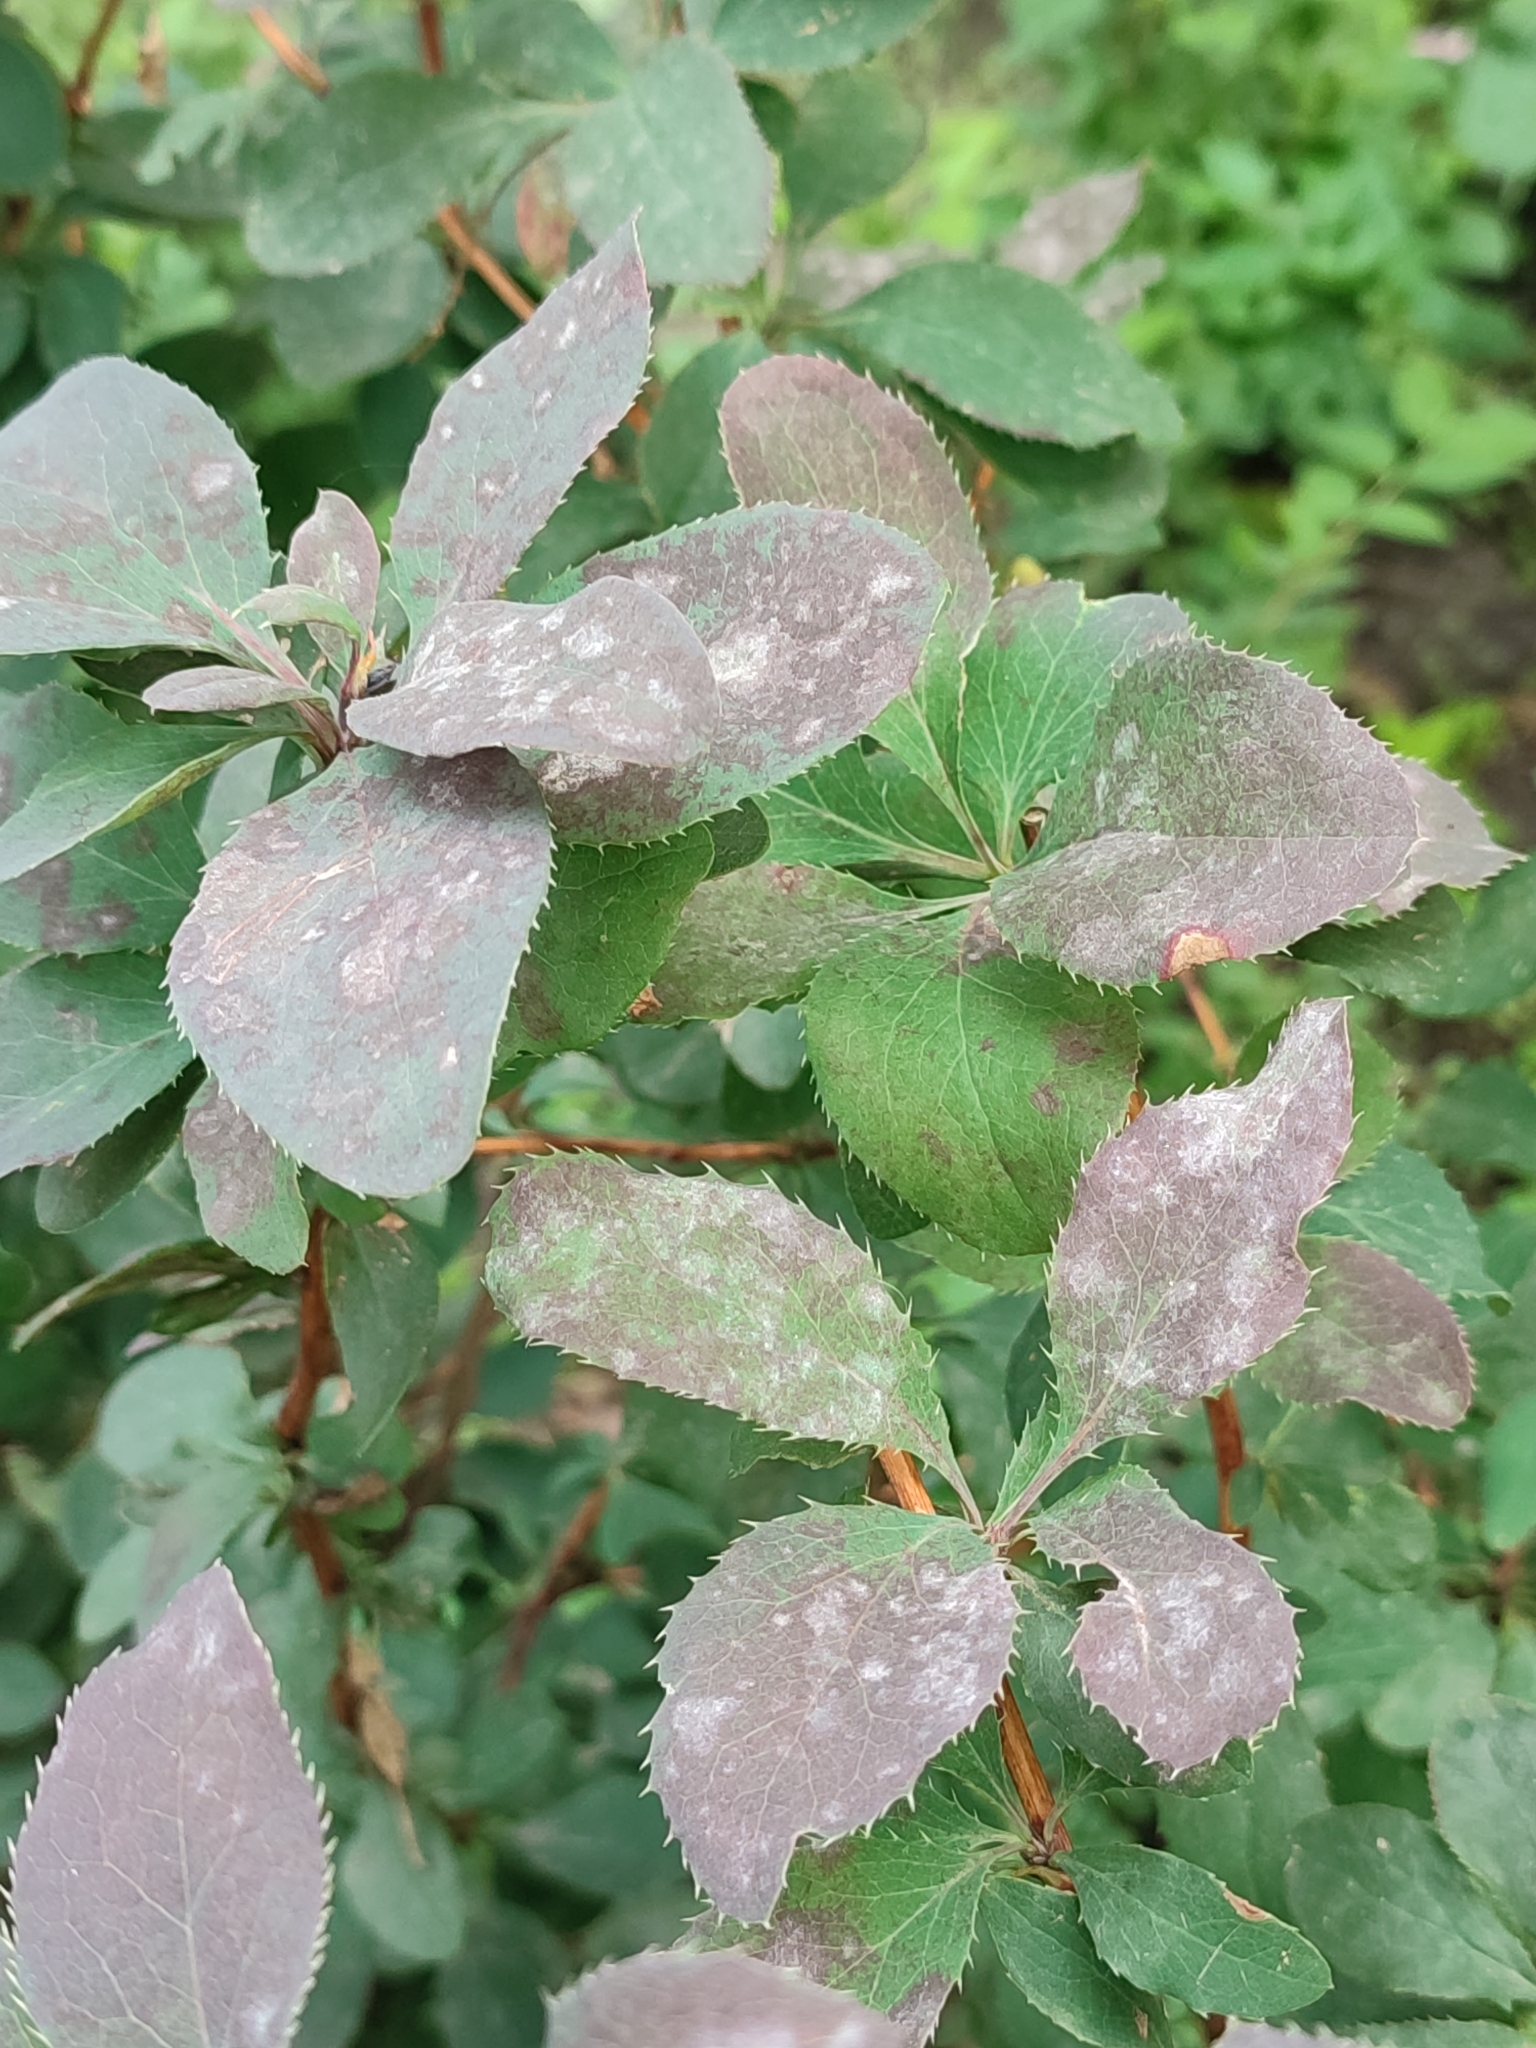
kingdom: Fungi
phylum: Ascomycota
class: Leotiomycetes
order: Helotiales
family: Erysiphaceae
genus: Erysiphe
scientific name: Erysiphe berberidis
